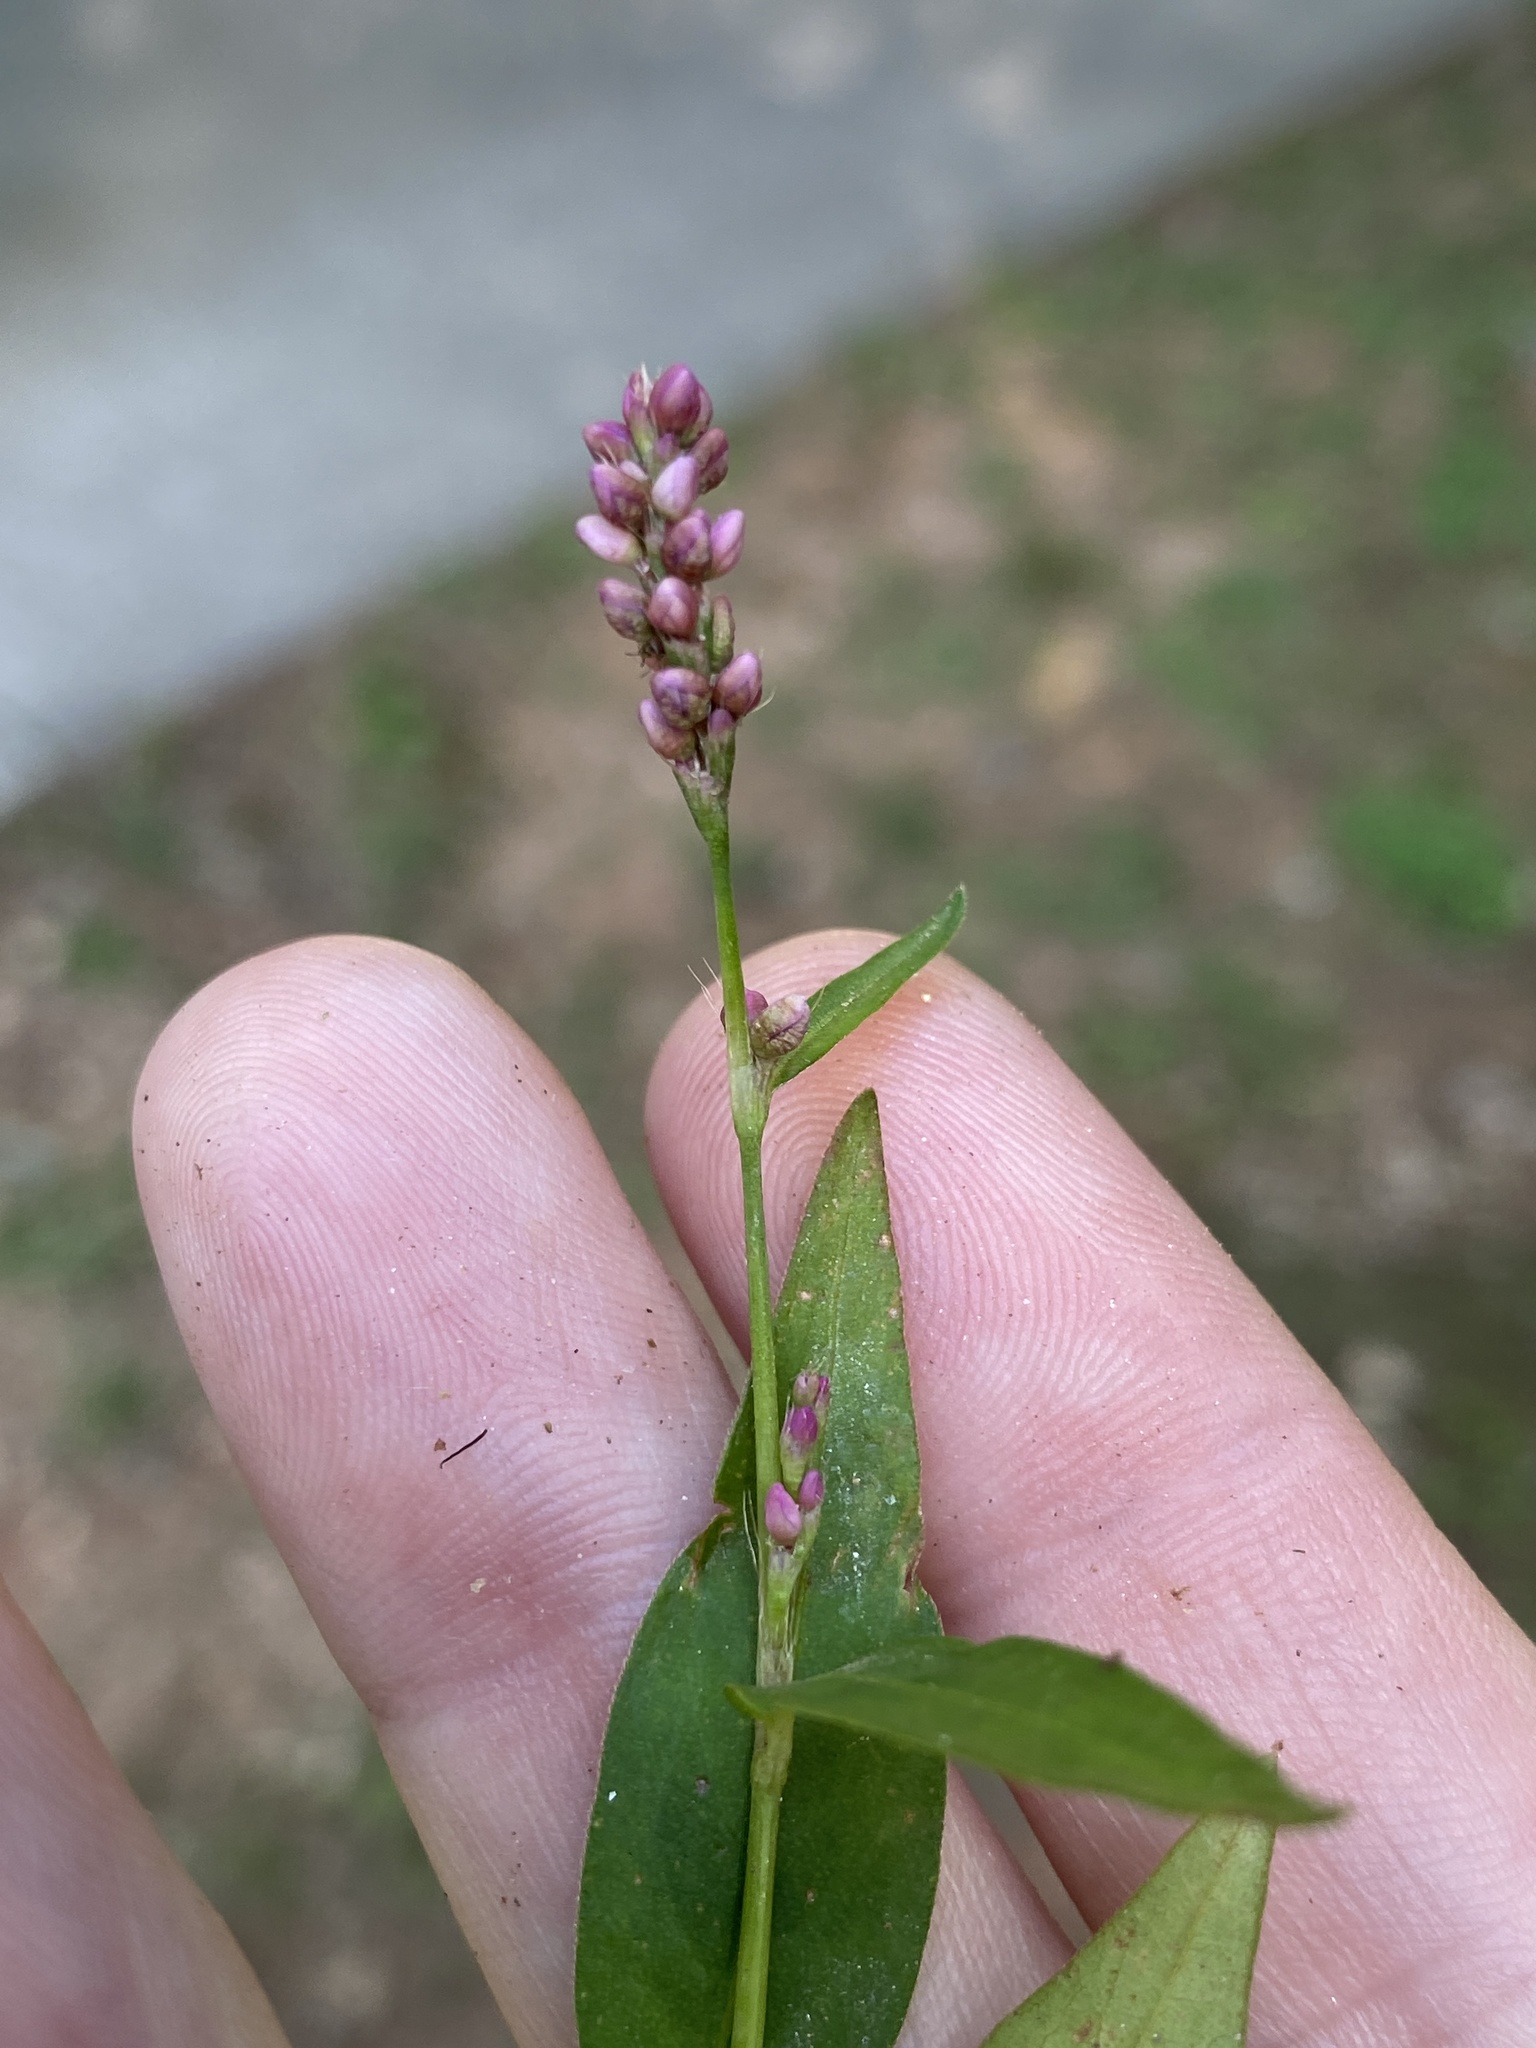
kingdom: Plantae
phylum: Tracheophyta
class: Magnoliopsida
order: Caryophyllales
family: Polygonaceae
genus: Persicaria
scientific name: Persicaria longiseta
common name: Bristly lady's-thumb
